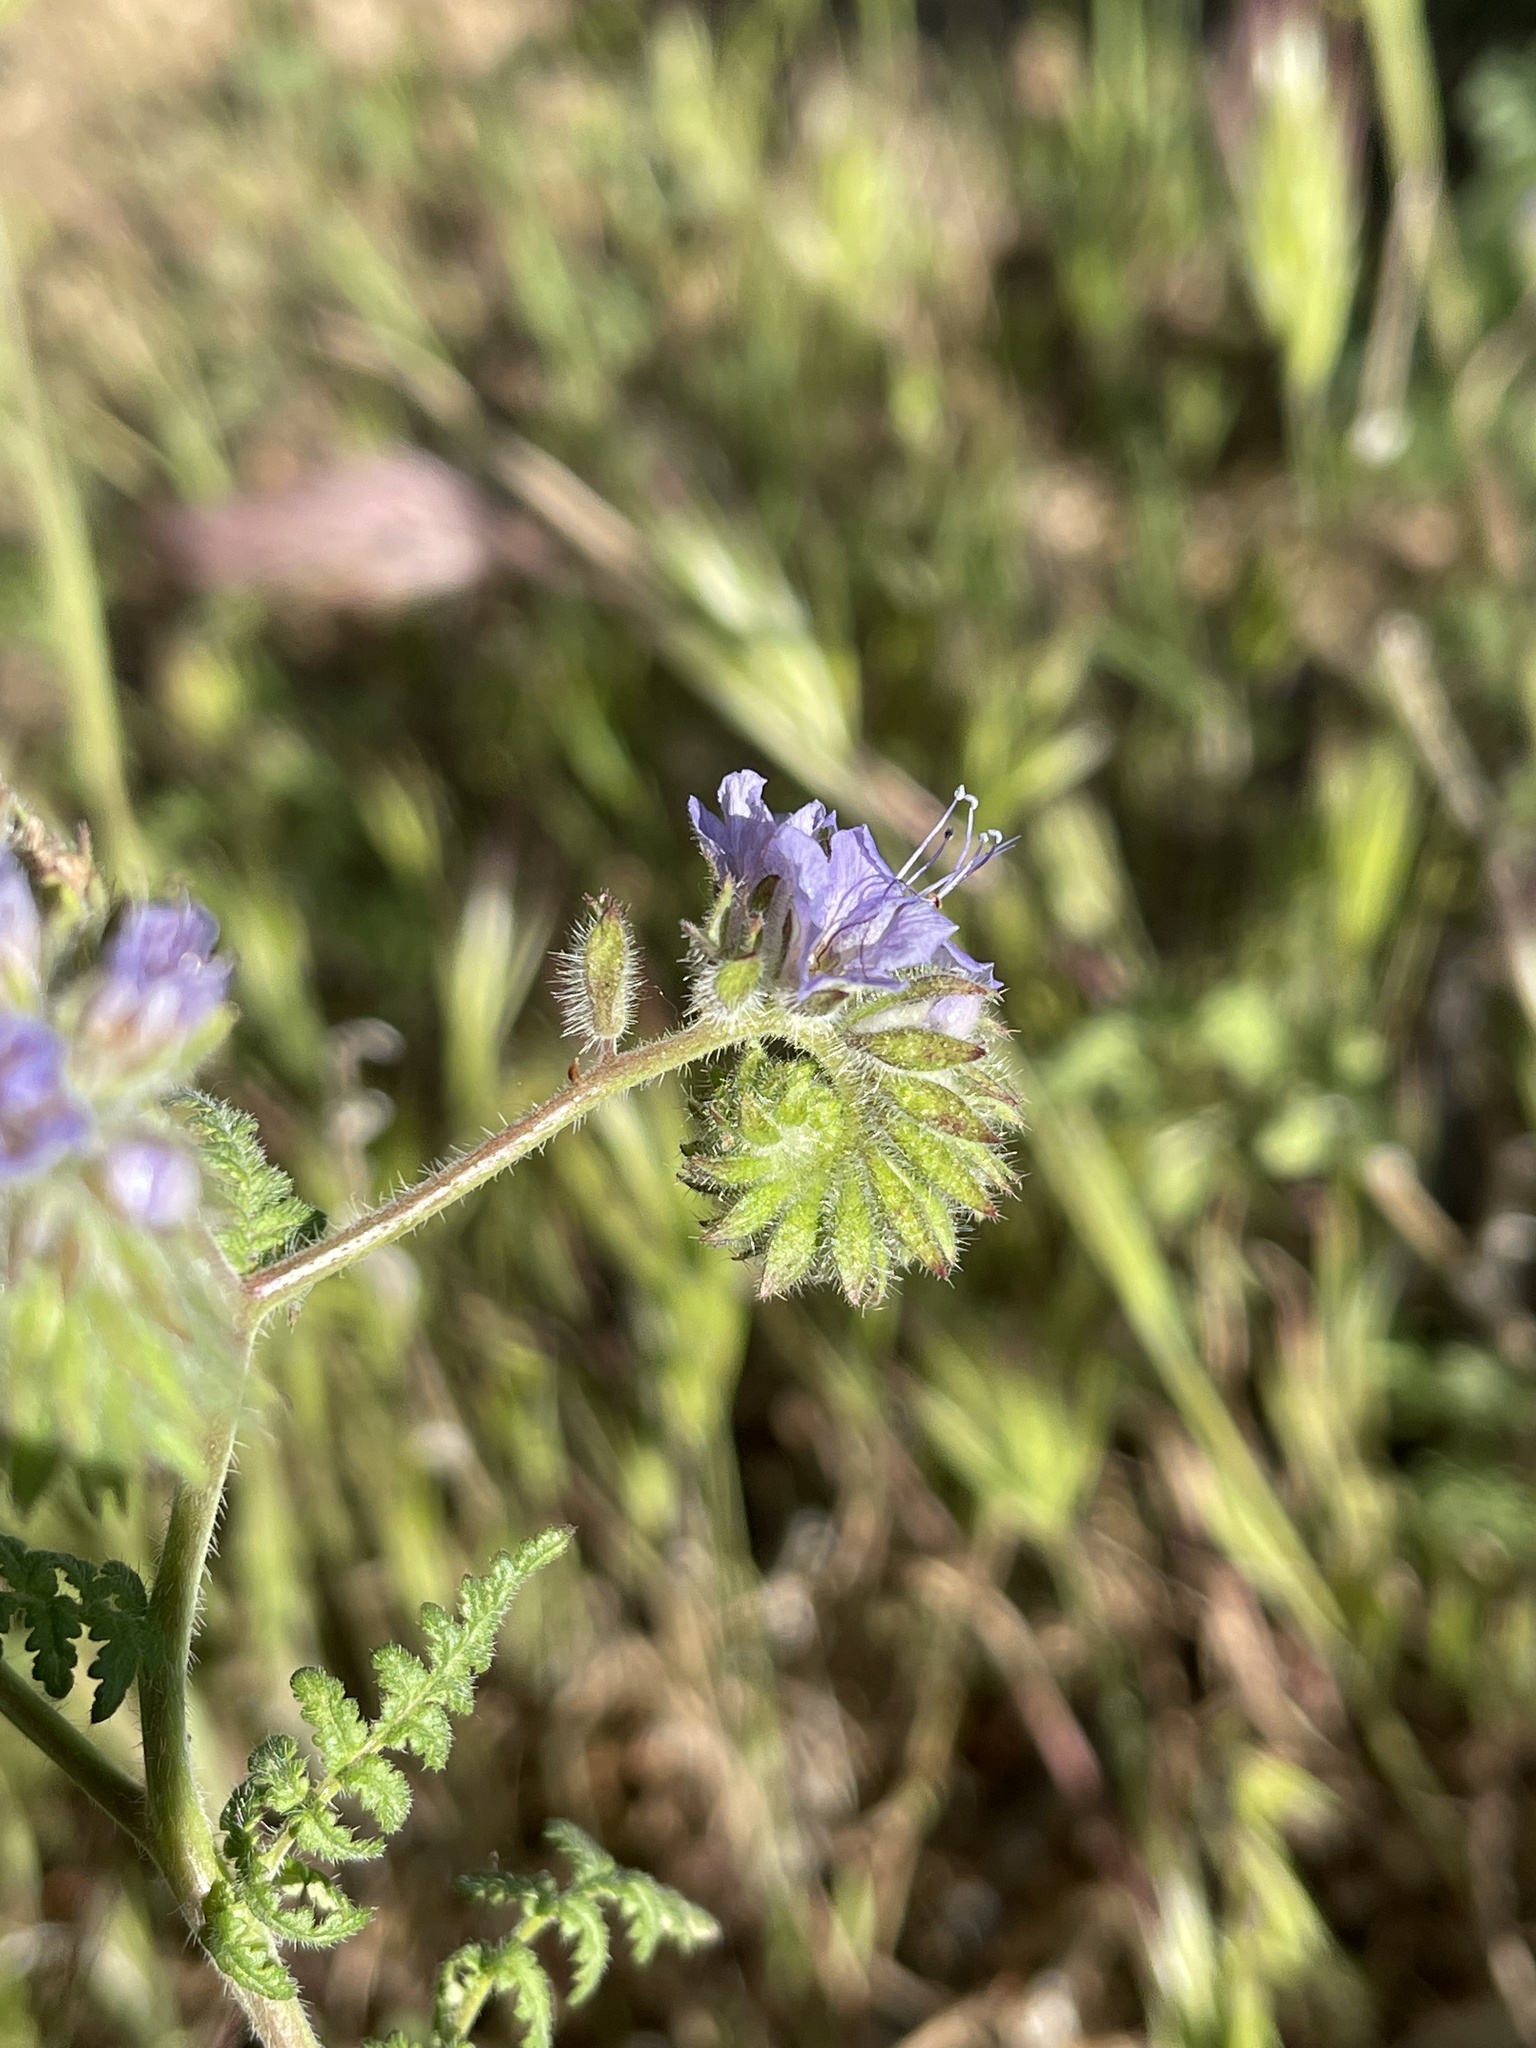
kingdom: Plantae
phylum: Tracheophyta
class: Magnoliopsida
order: Boraginales
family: Hydrophyllaceae
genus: Phacelia
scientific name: Phacelia distans
